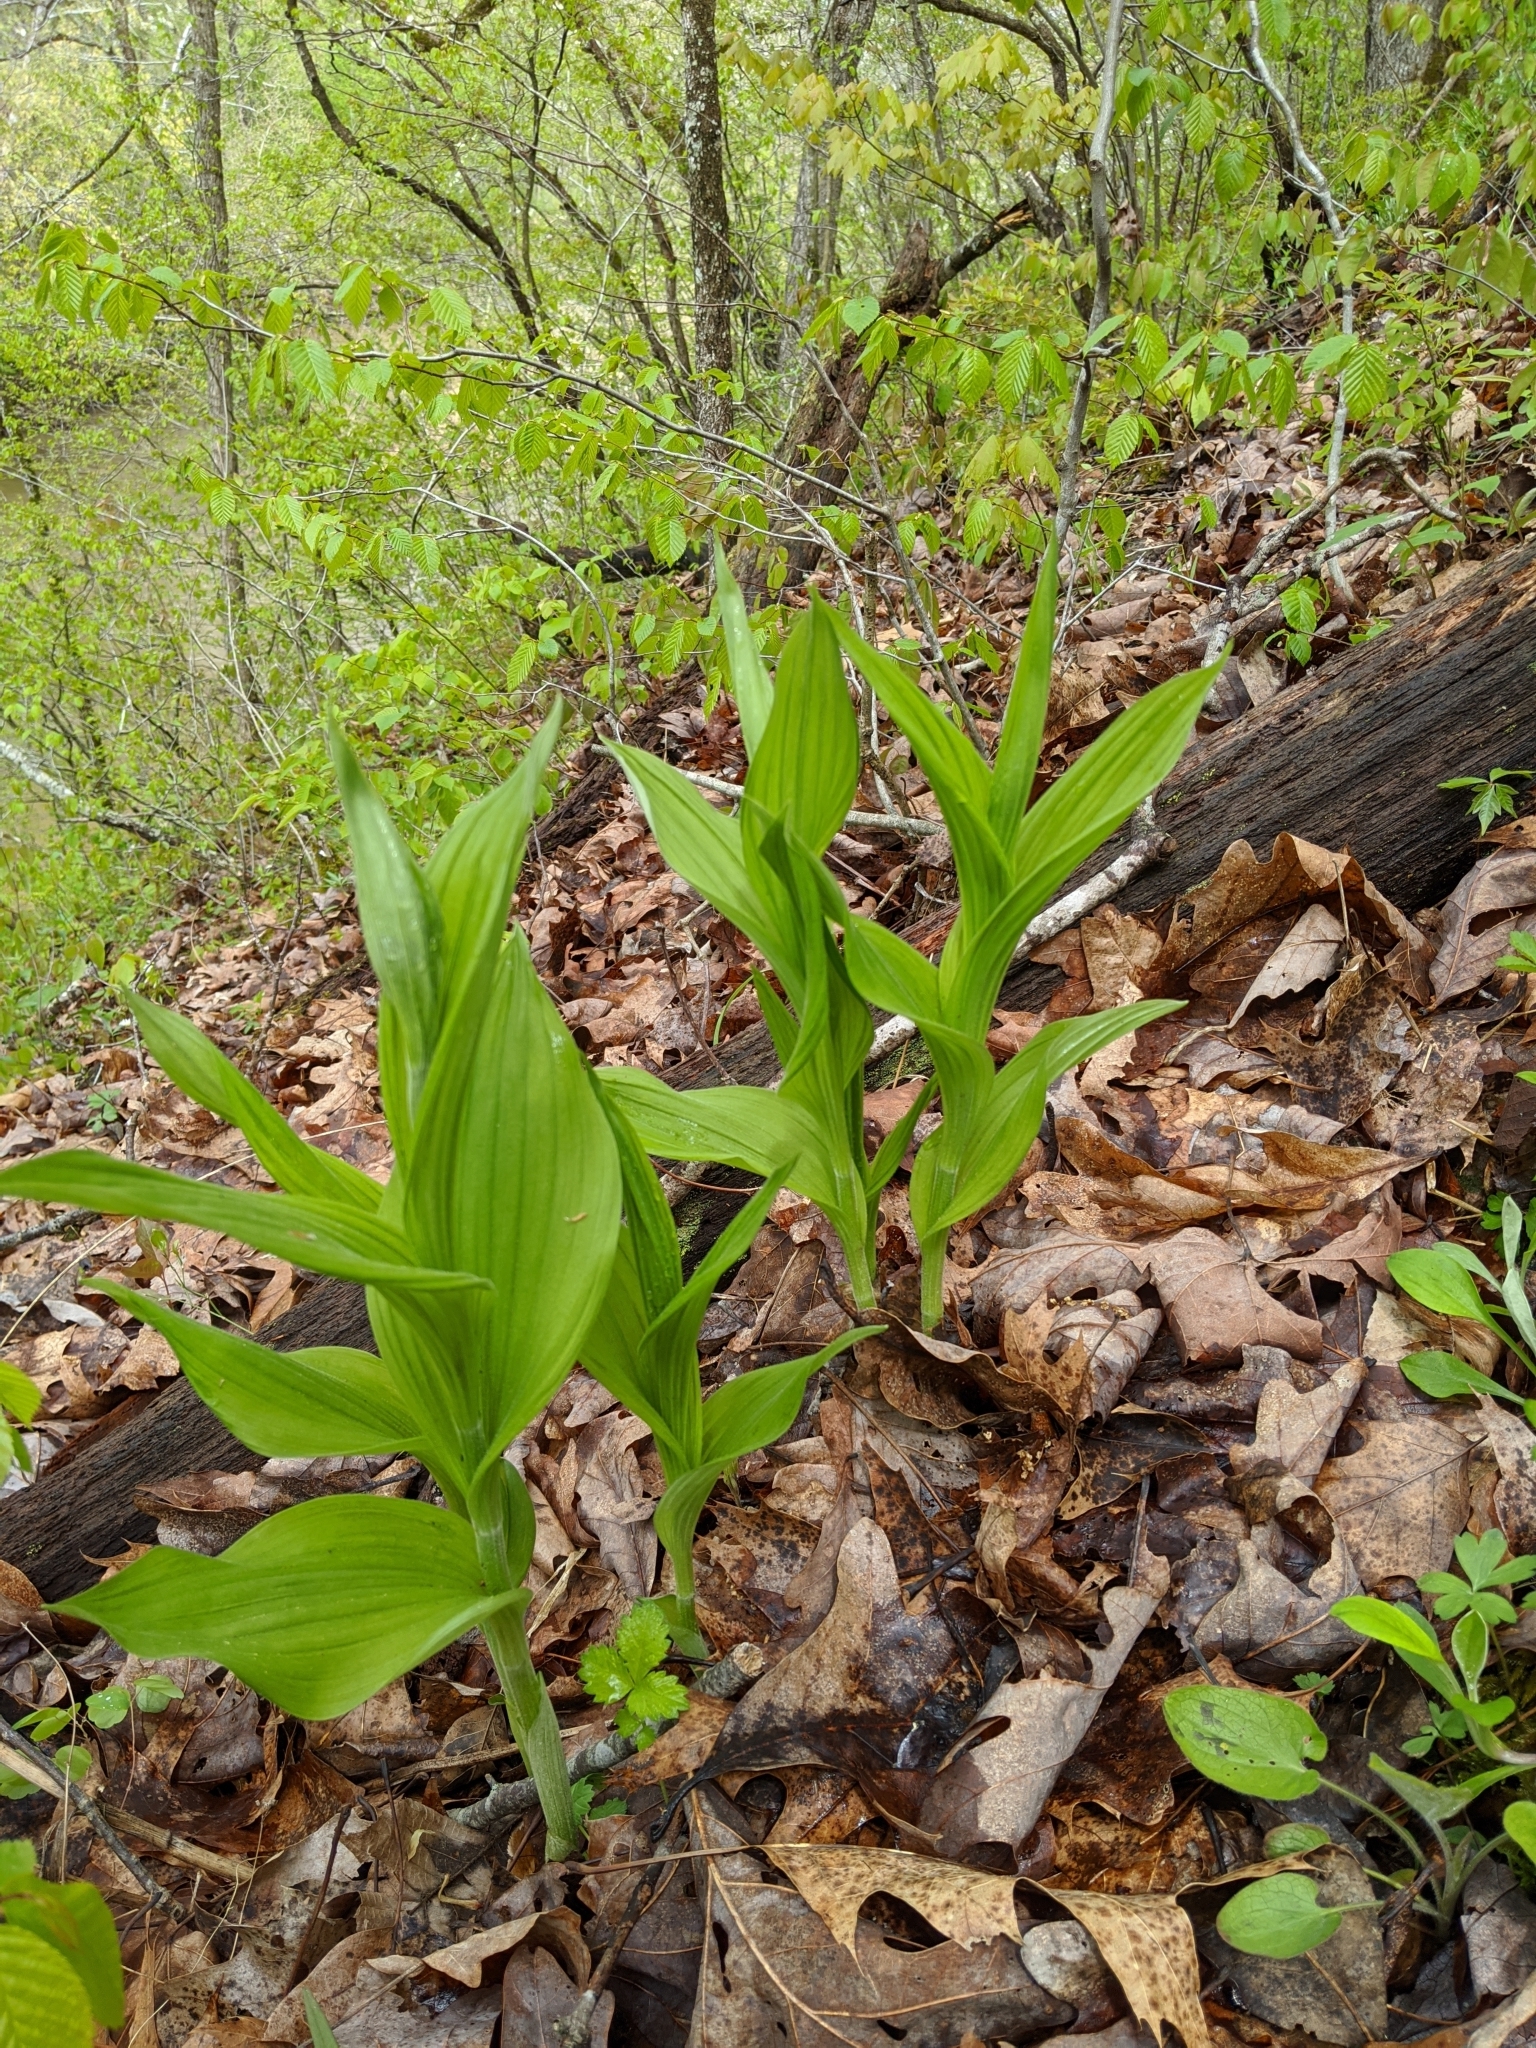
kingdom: Plantae
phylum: Tracheophyta
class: Liliopsida
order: Asparagales
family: Orchidaceae
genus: Cypripedium
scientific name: Cypripedium parviflorum
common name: American yellow lady's-slipper
